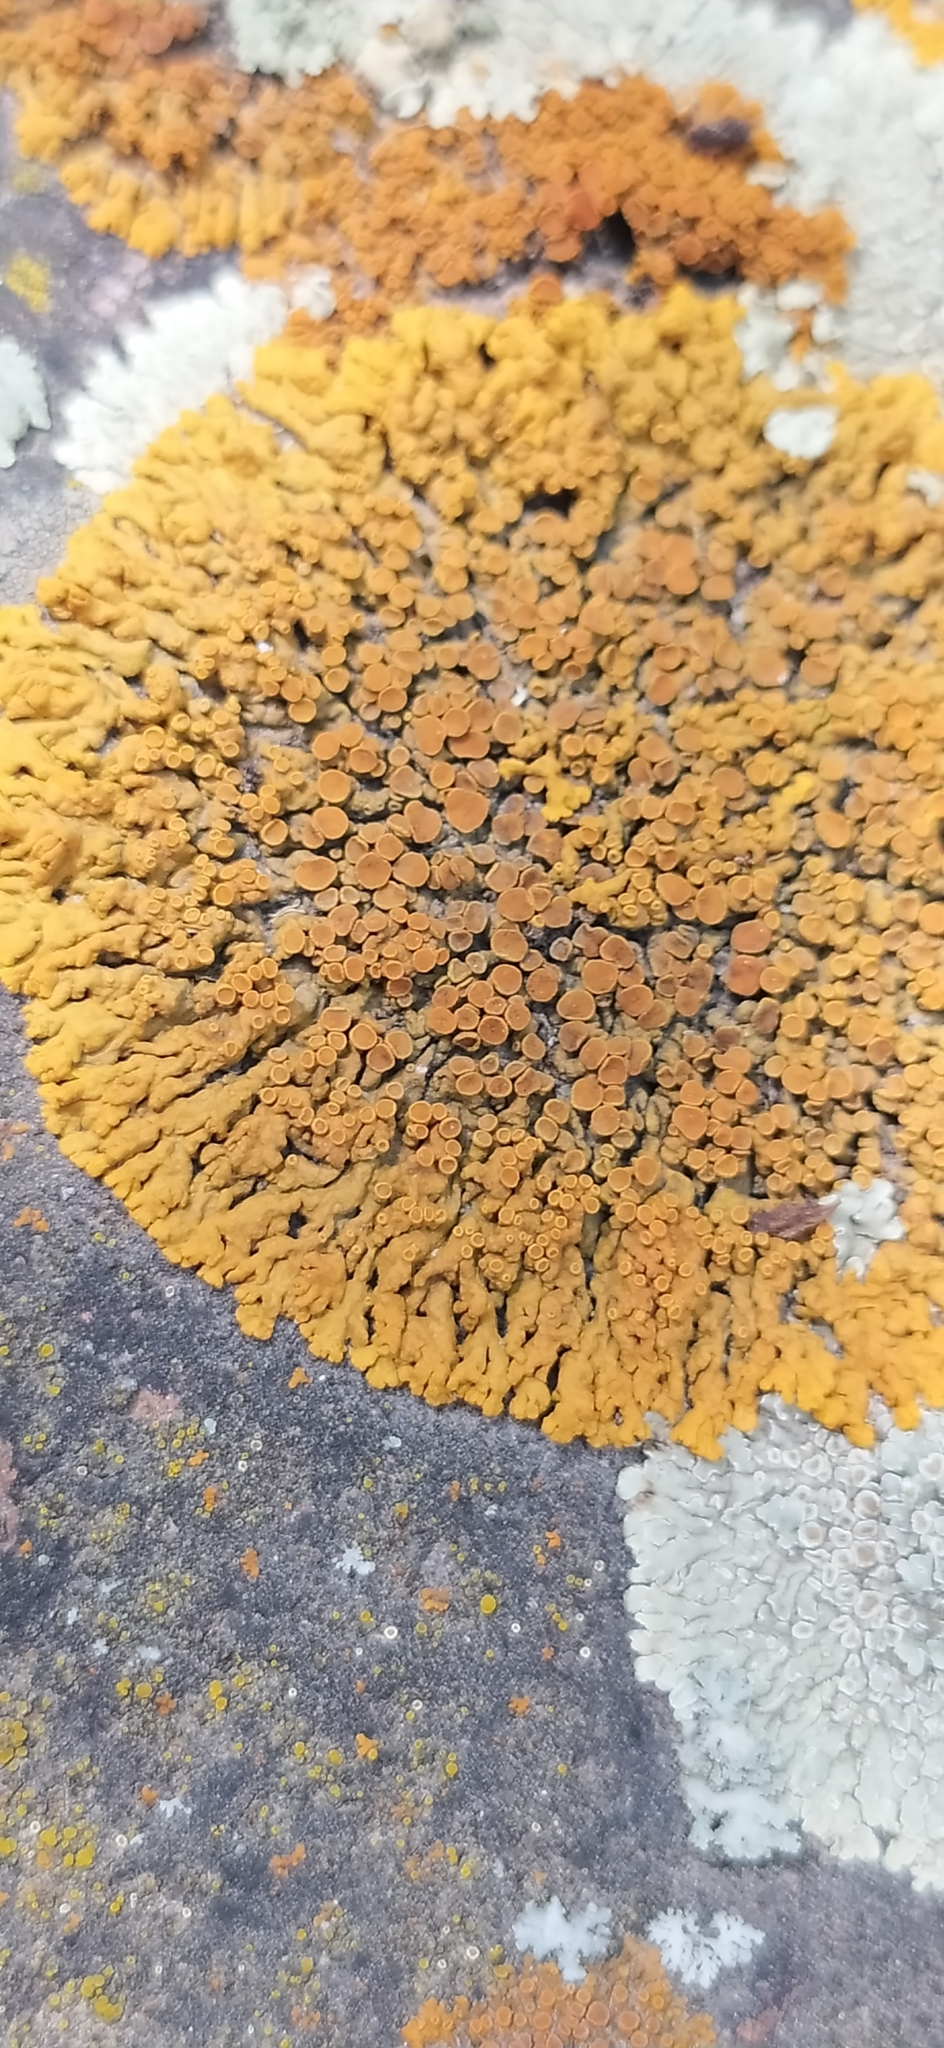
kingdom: Fungi
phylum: Ascomycota
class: Lecanoromycetes
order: Teloschistales
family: Teloschistaceae
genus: Xanthoria
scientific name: Xanthoria elegans
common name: Elegant sunburst lichen
